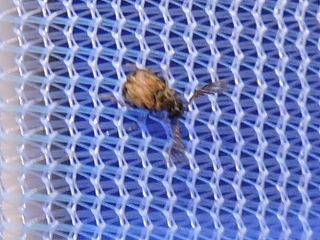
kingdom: Animalia
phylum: Arthropoda
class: Insecta
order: Coleoptera
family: Chrysomelidae
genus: Megacerus
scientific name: Megacerus cubiculus
